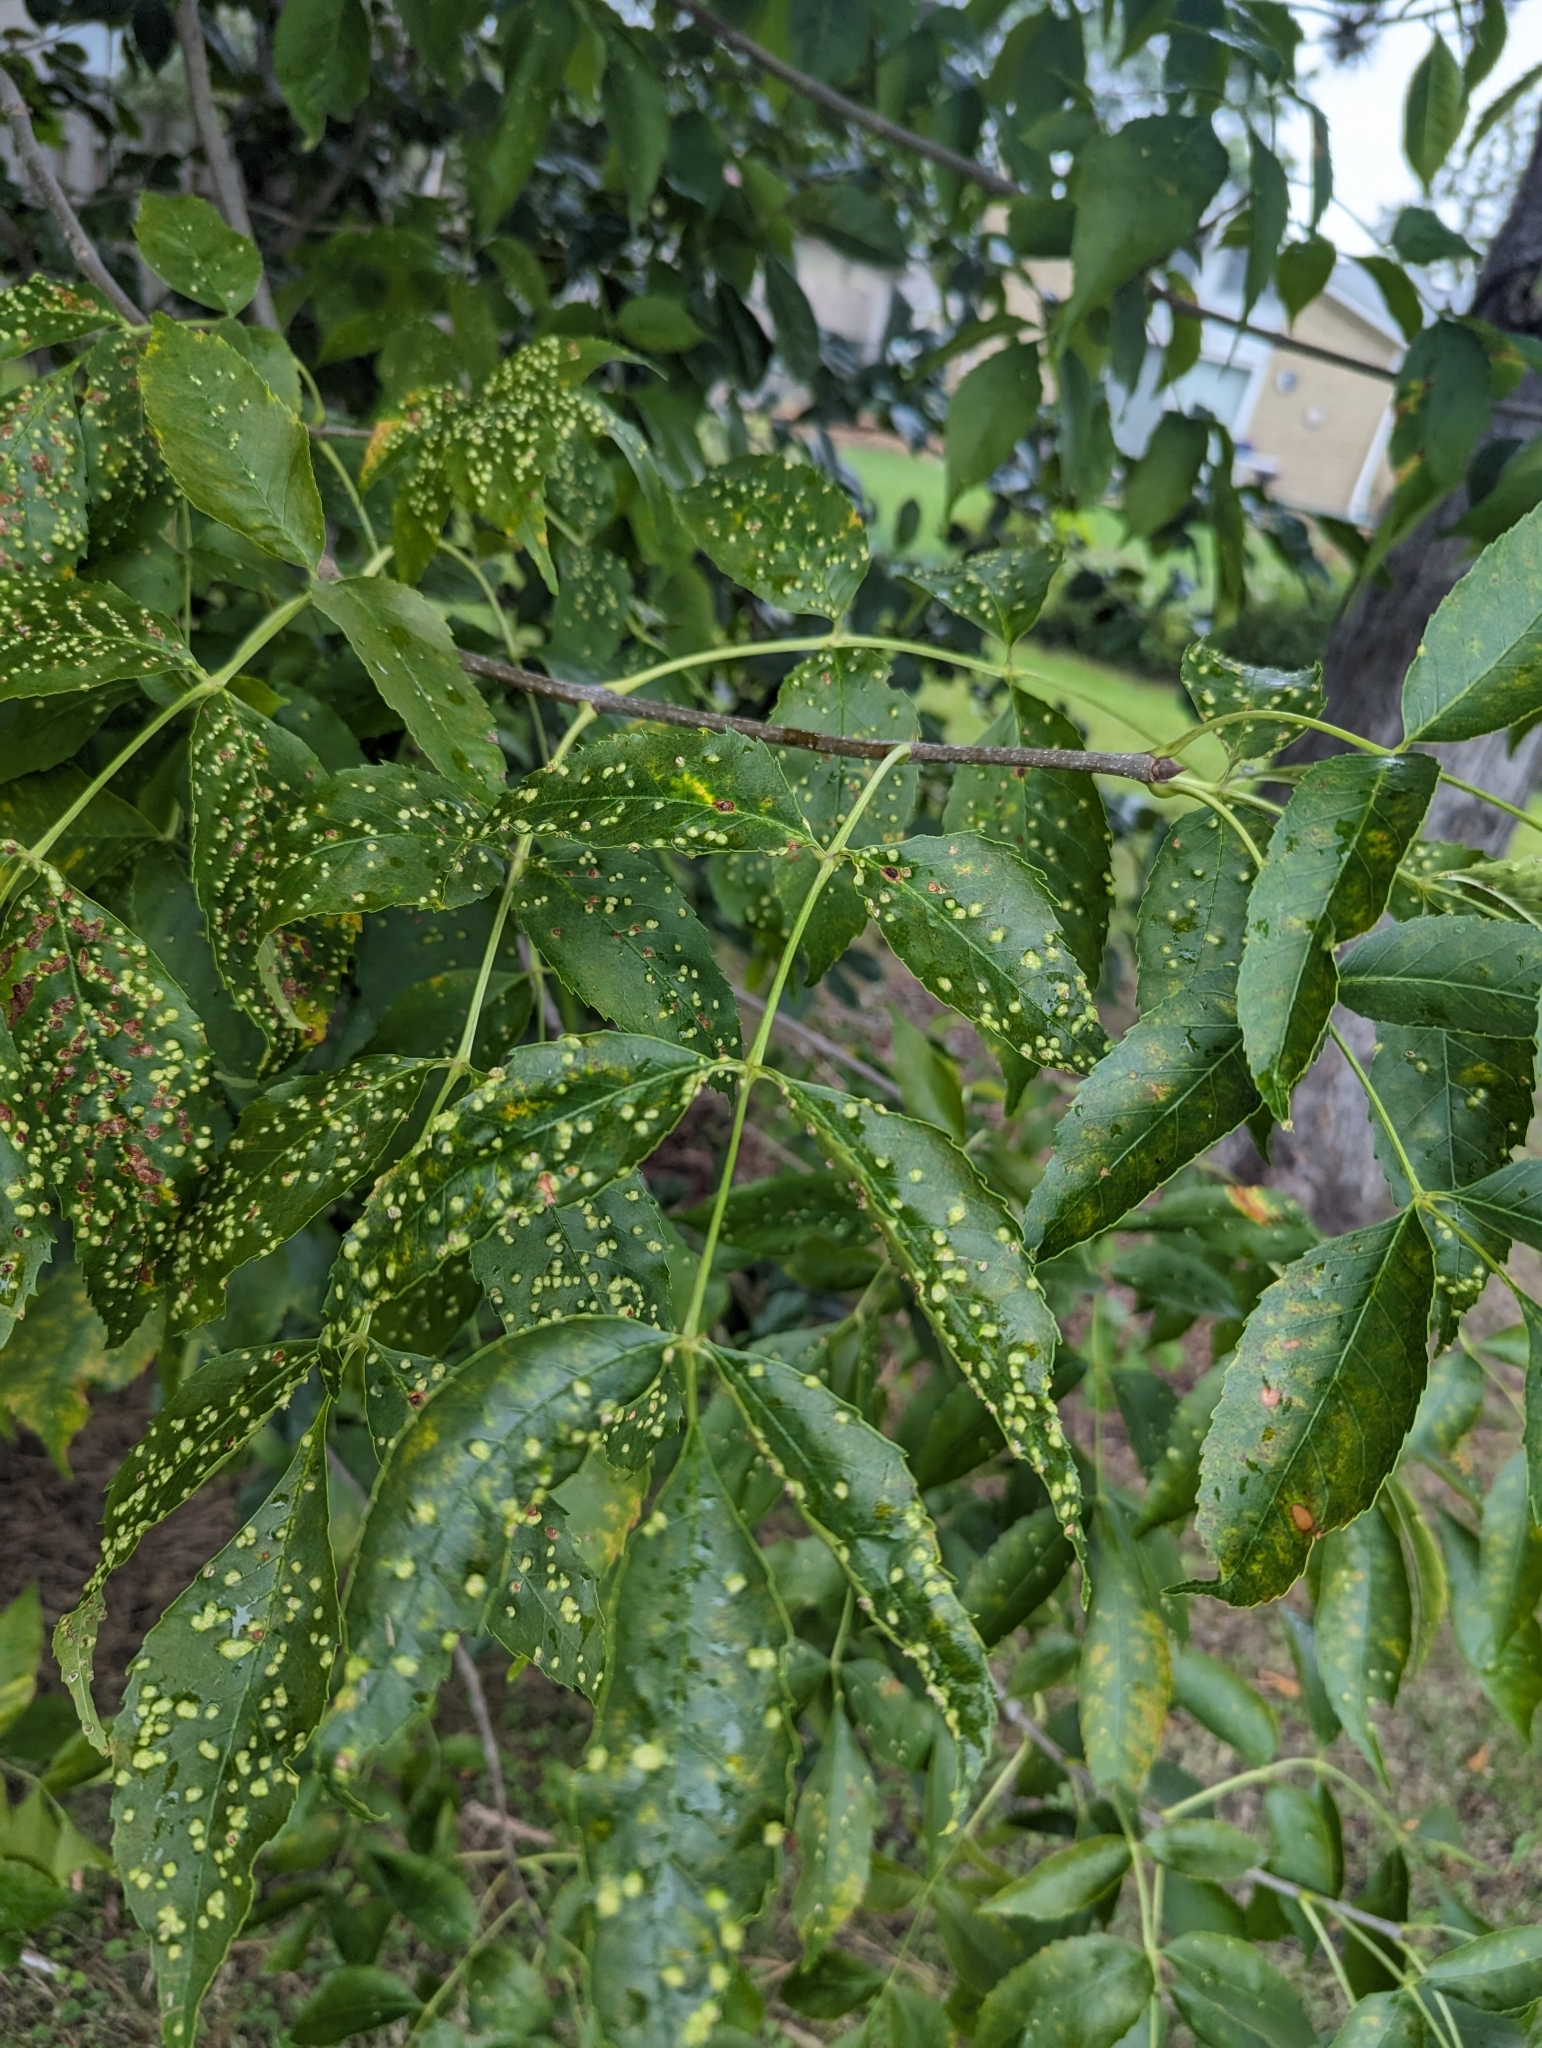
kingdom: Animalia
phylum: Arthropoda
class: Arachnida
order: Trombidiformes
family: Eriophyidae
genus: Aceria
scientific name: Aceria fraxinicola
